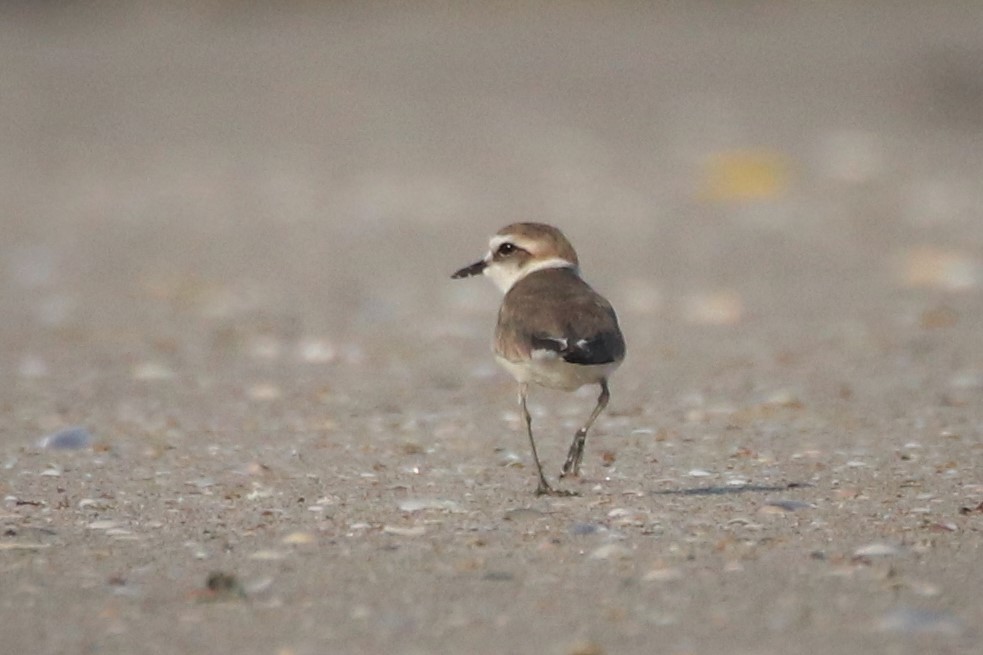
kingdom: Animalia
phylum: Chordata
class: Aves
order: Charadriiformes
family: Charadriidae
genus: Charadrius
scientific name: Charadrius alexandrinus
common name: Kentish plover
